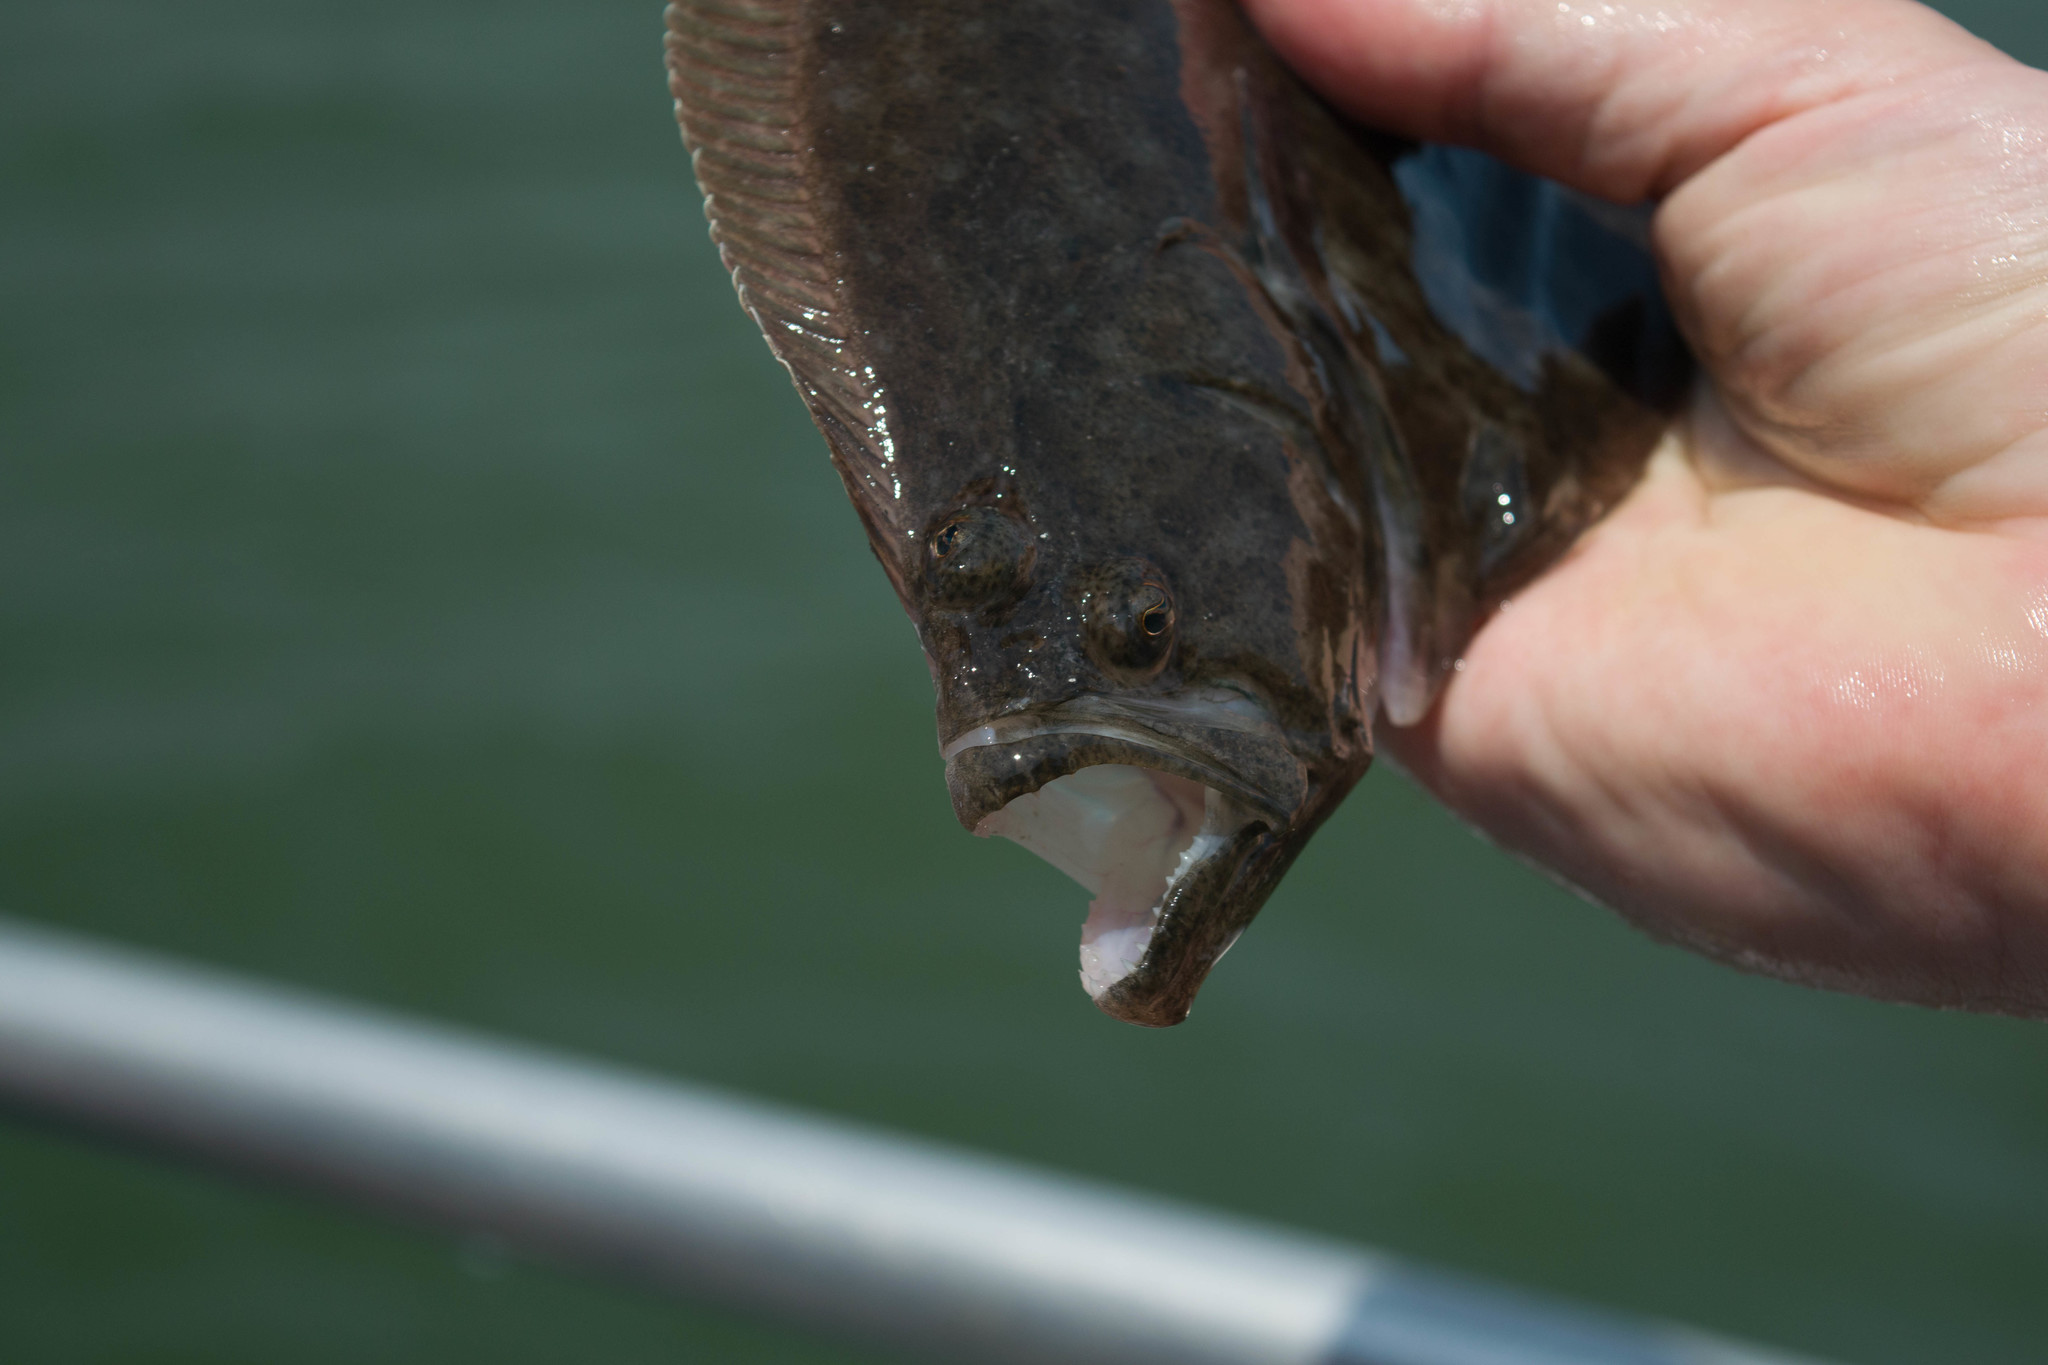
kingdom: Animalia
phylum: Chordata
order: Pleuronectiformes
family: Paralichthyidae
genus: Paralichthys
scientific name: Paralichthys dentatus
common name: Summer flounder
